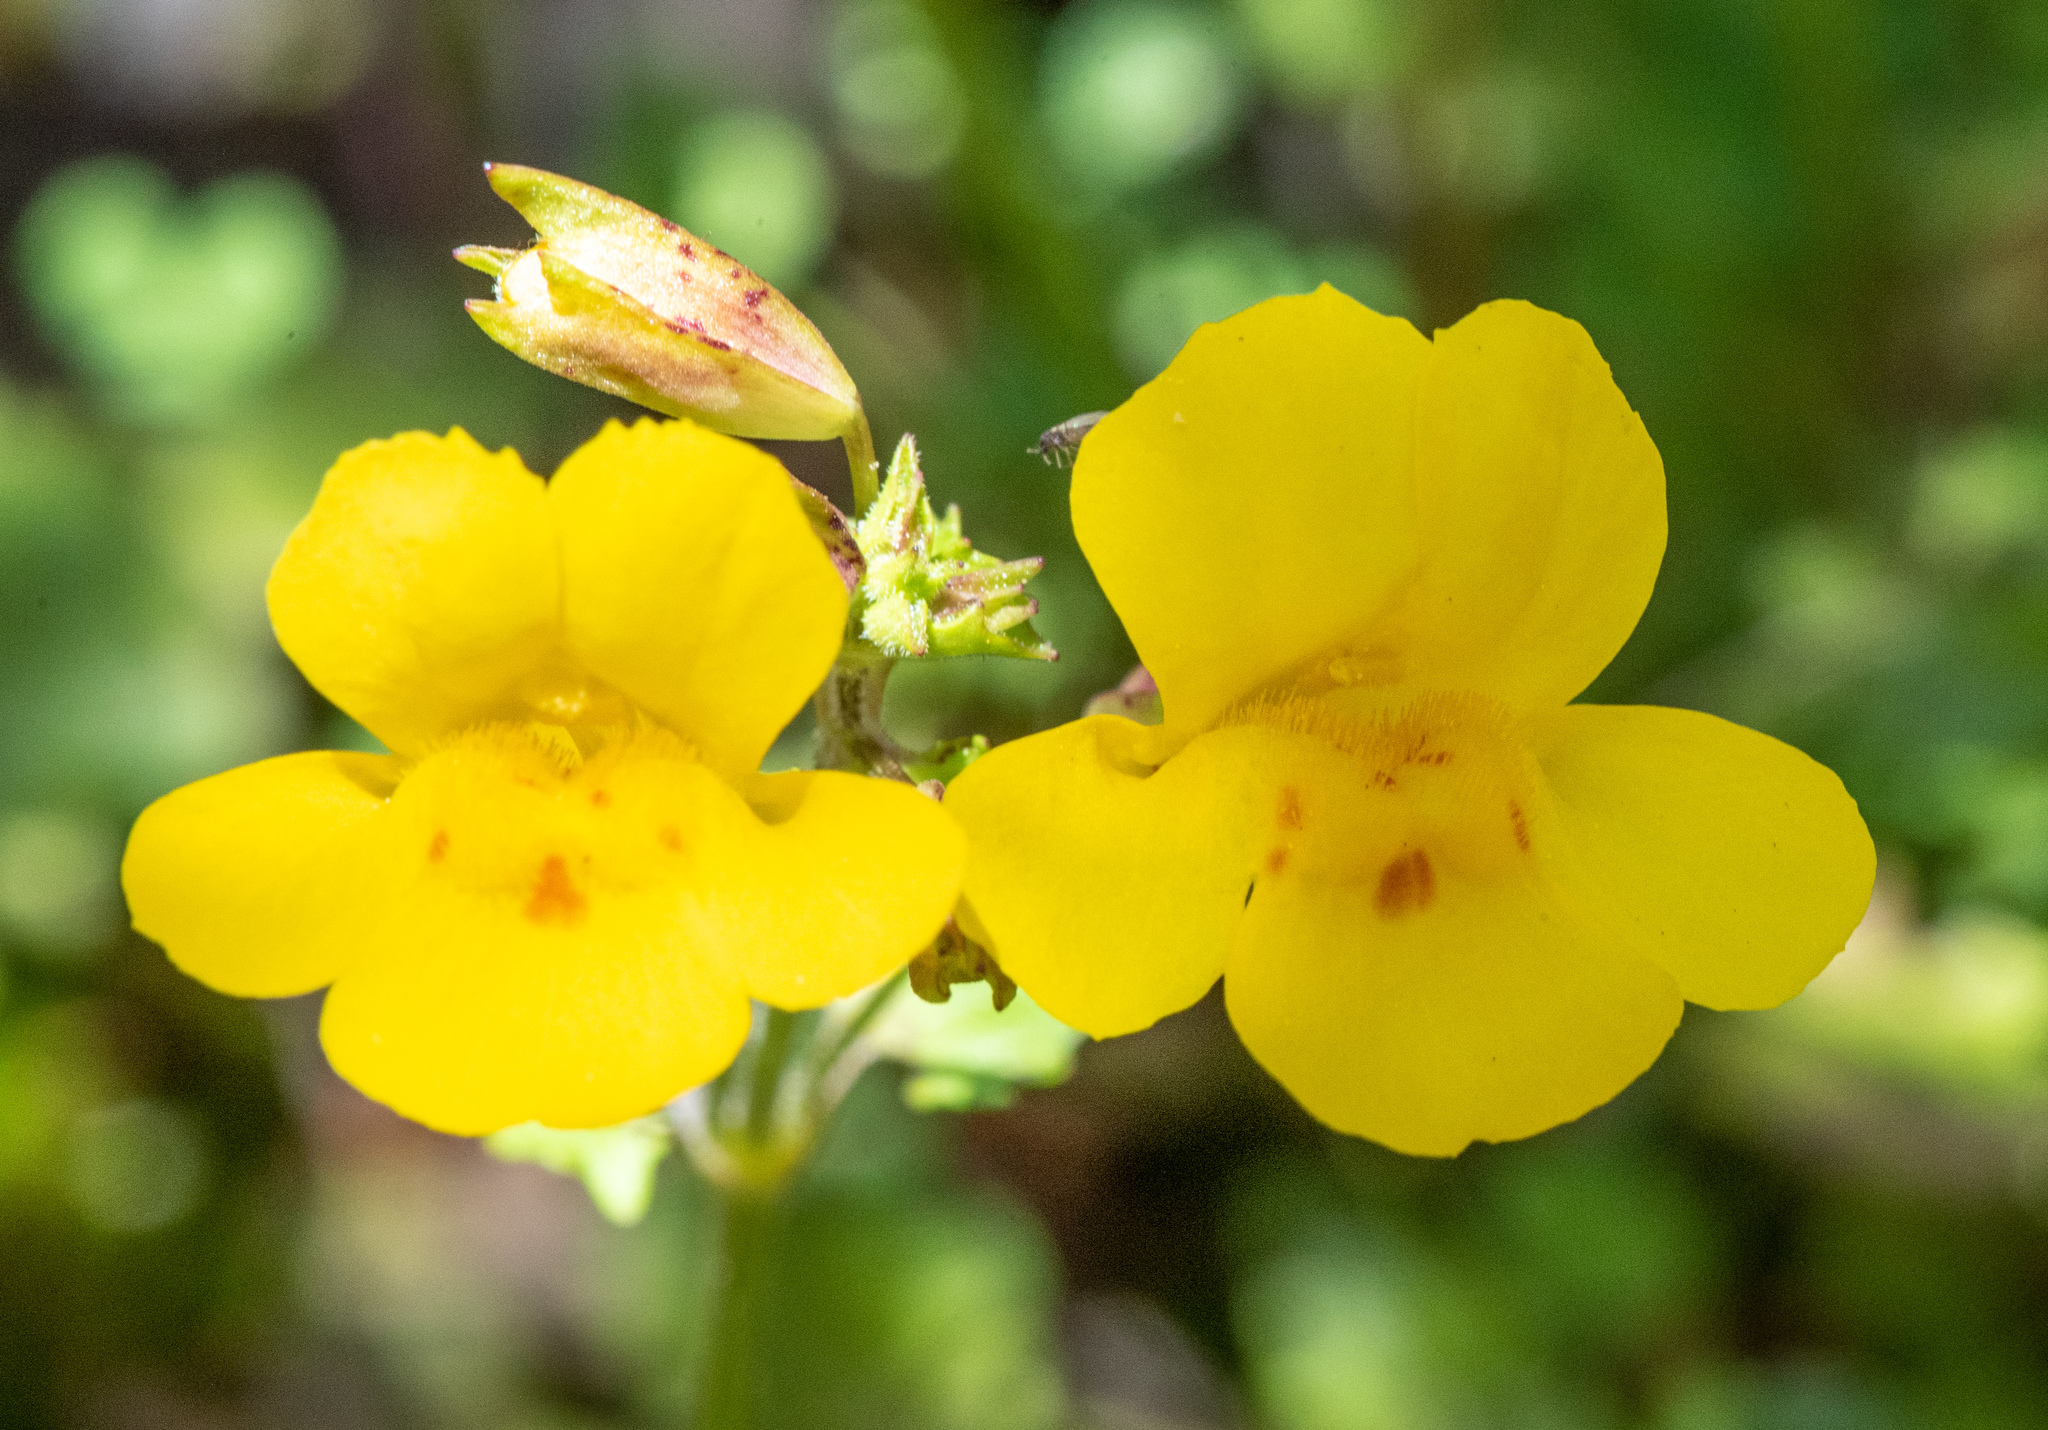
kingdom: Plantae
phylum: Tracheophyta
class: Magnoliopsida
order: Lamiales
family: Phrymaceae
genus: Erythranthe
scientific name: Erythranthe guttata
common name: Monkeyflower
